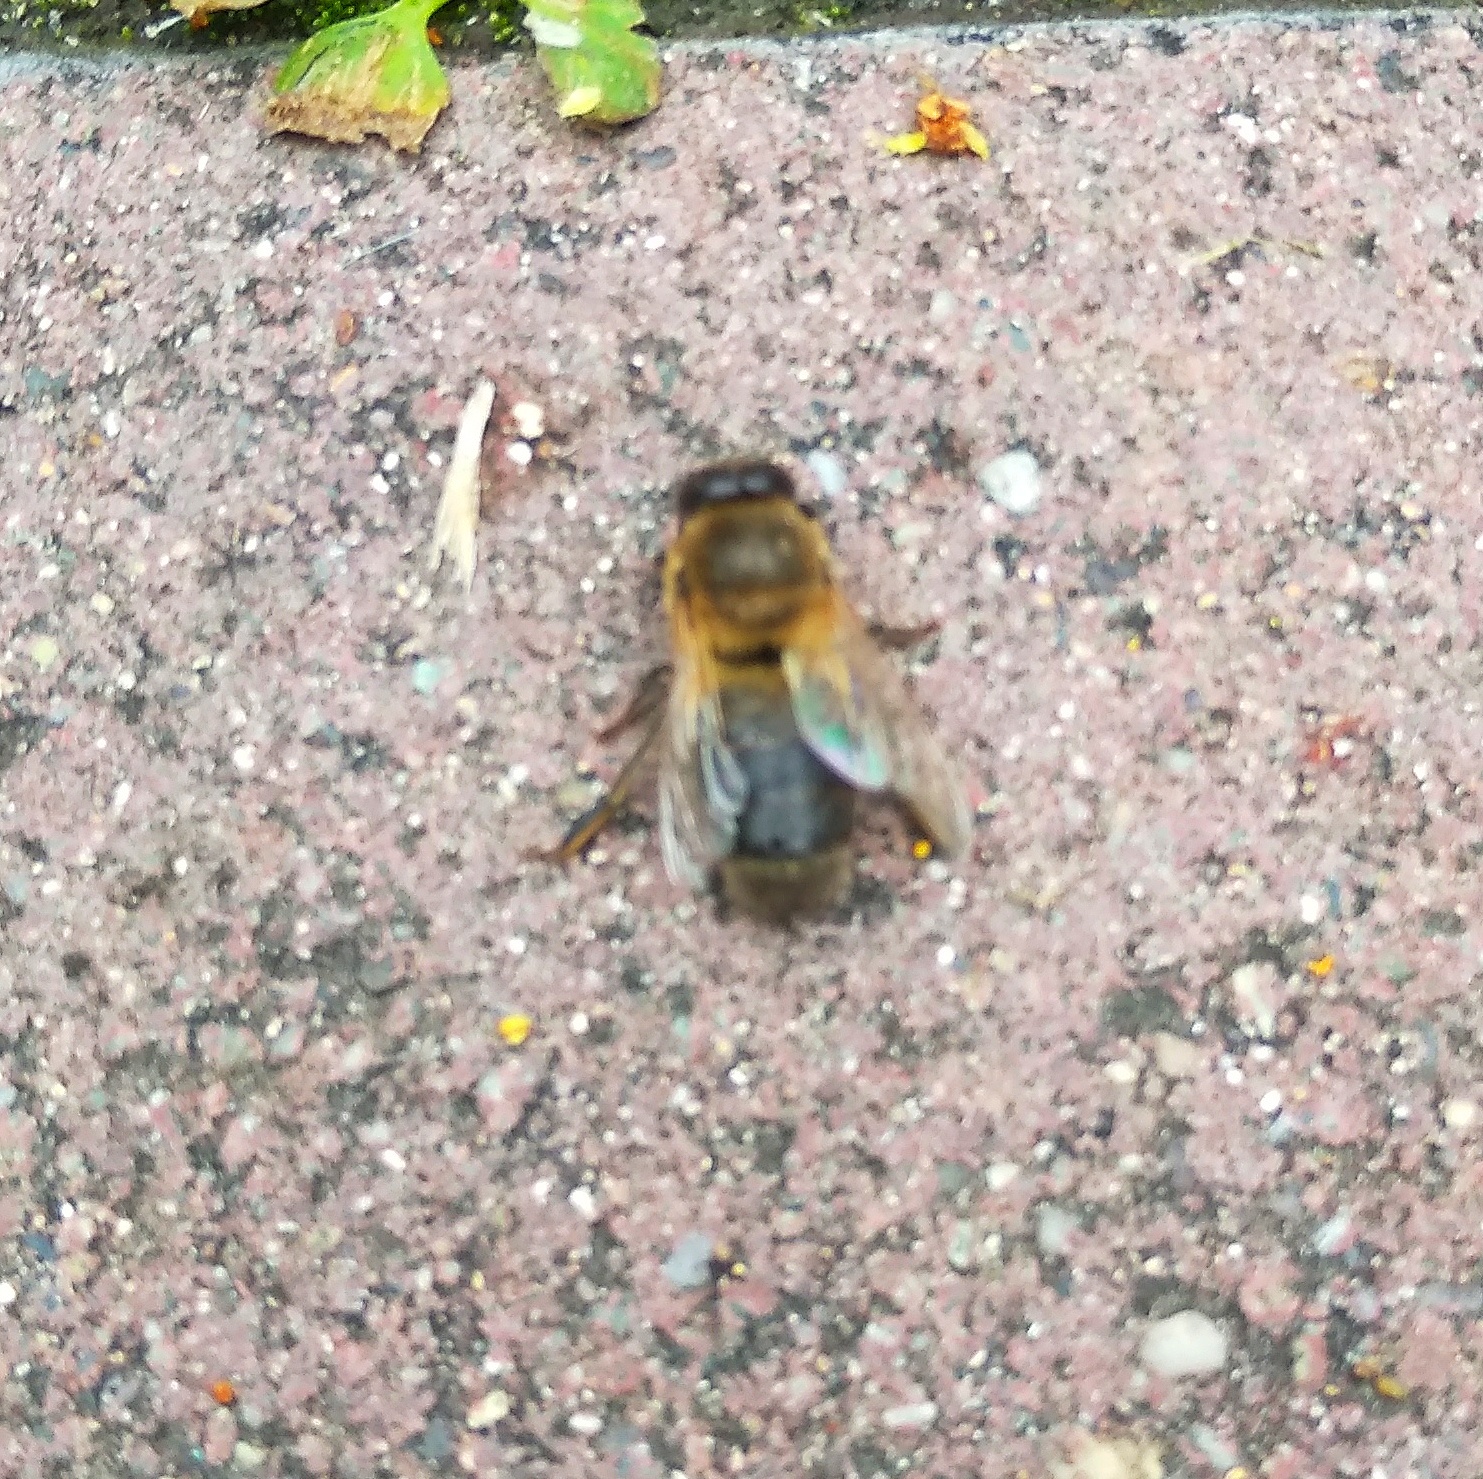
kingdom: Animalia
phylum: Arthropoda
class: Insecta
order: Hymenoptera
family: Apidae
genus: Apis
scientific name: Apis mellifera
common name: Honey bee
